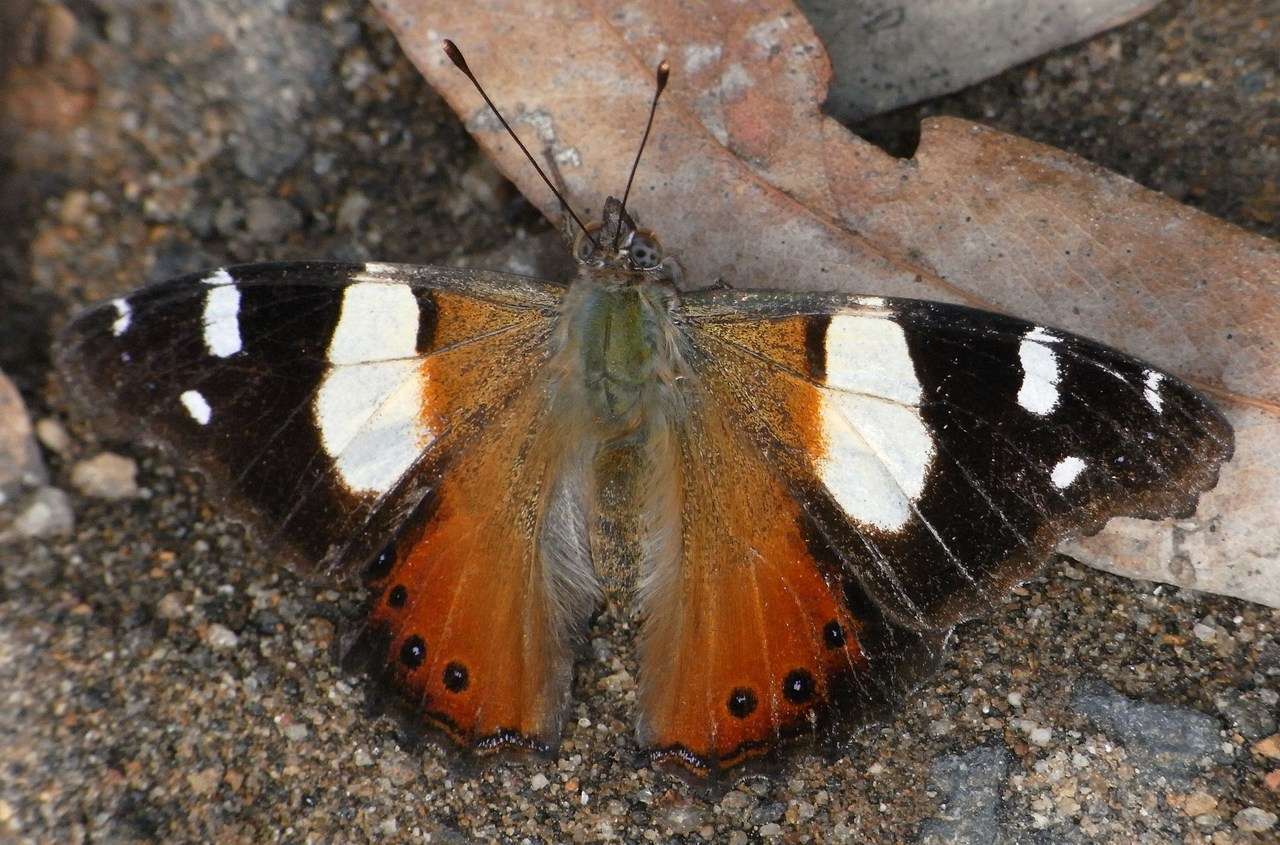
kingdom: Animalia
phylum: Arthropoda
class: Insecta
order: Lepidoptera
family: Nymphalidae
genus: Vanessa
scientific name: Vanessa itea
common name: Yellow admiral
